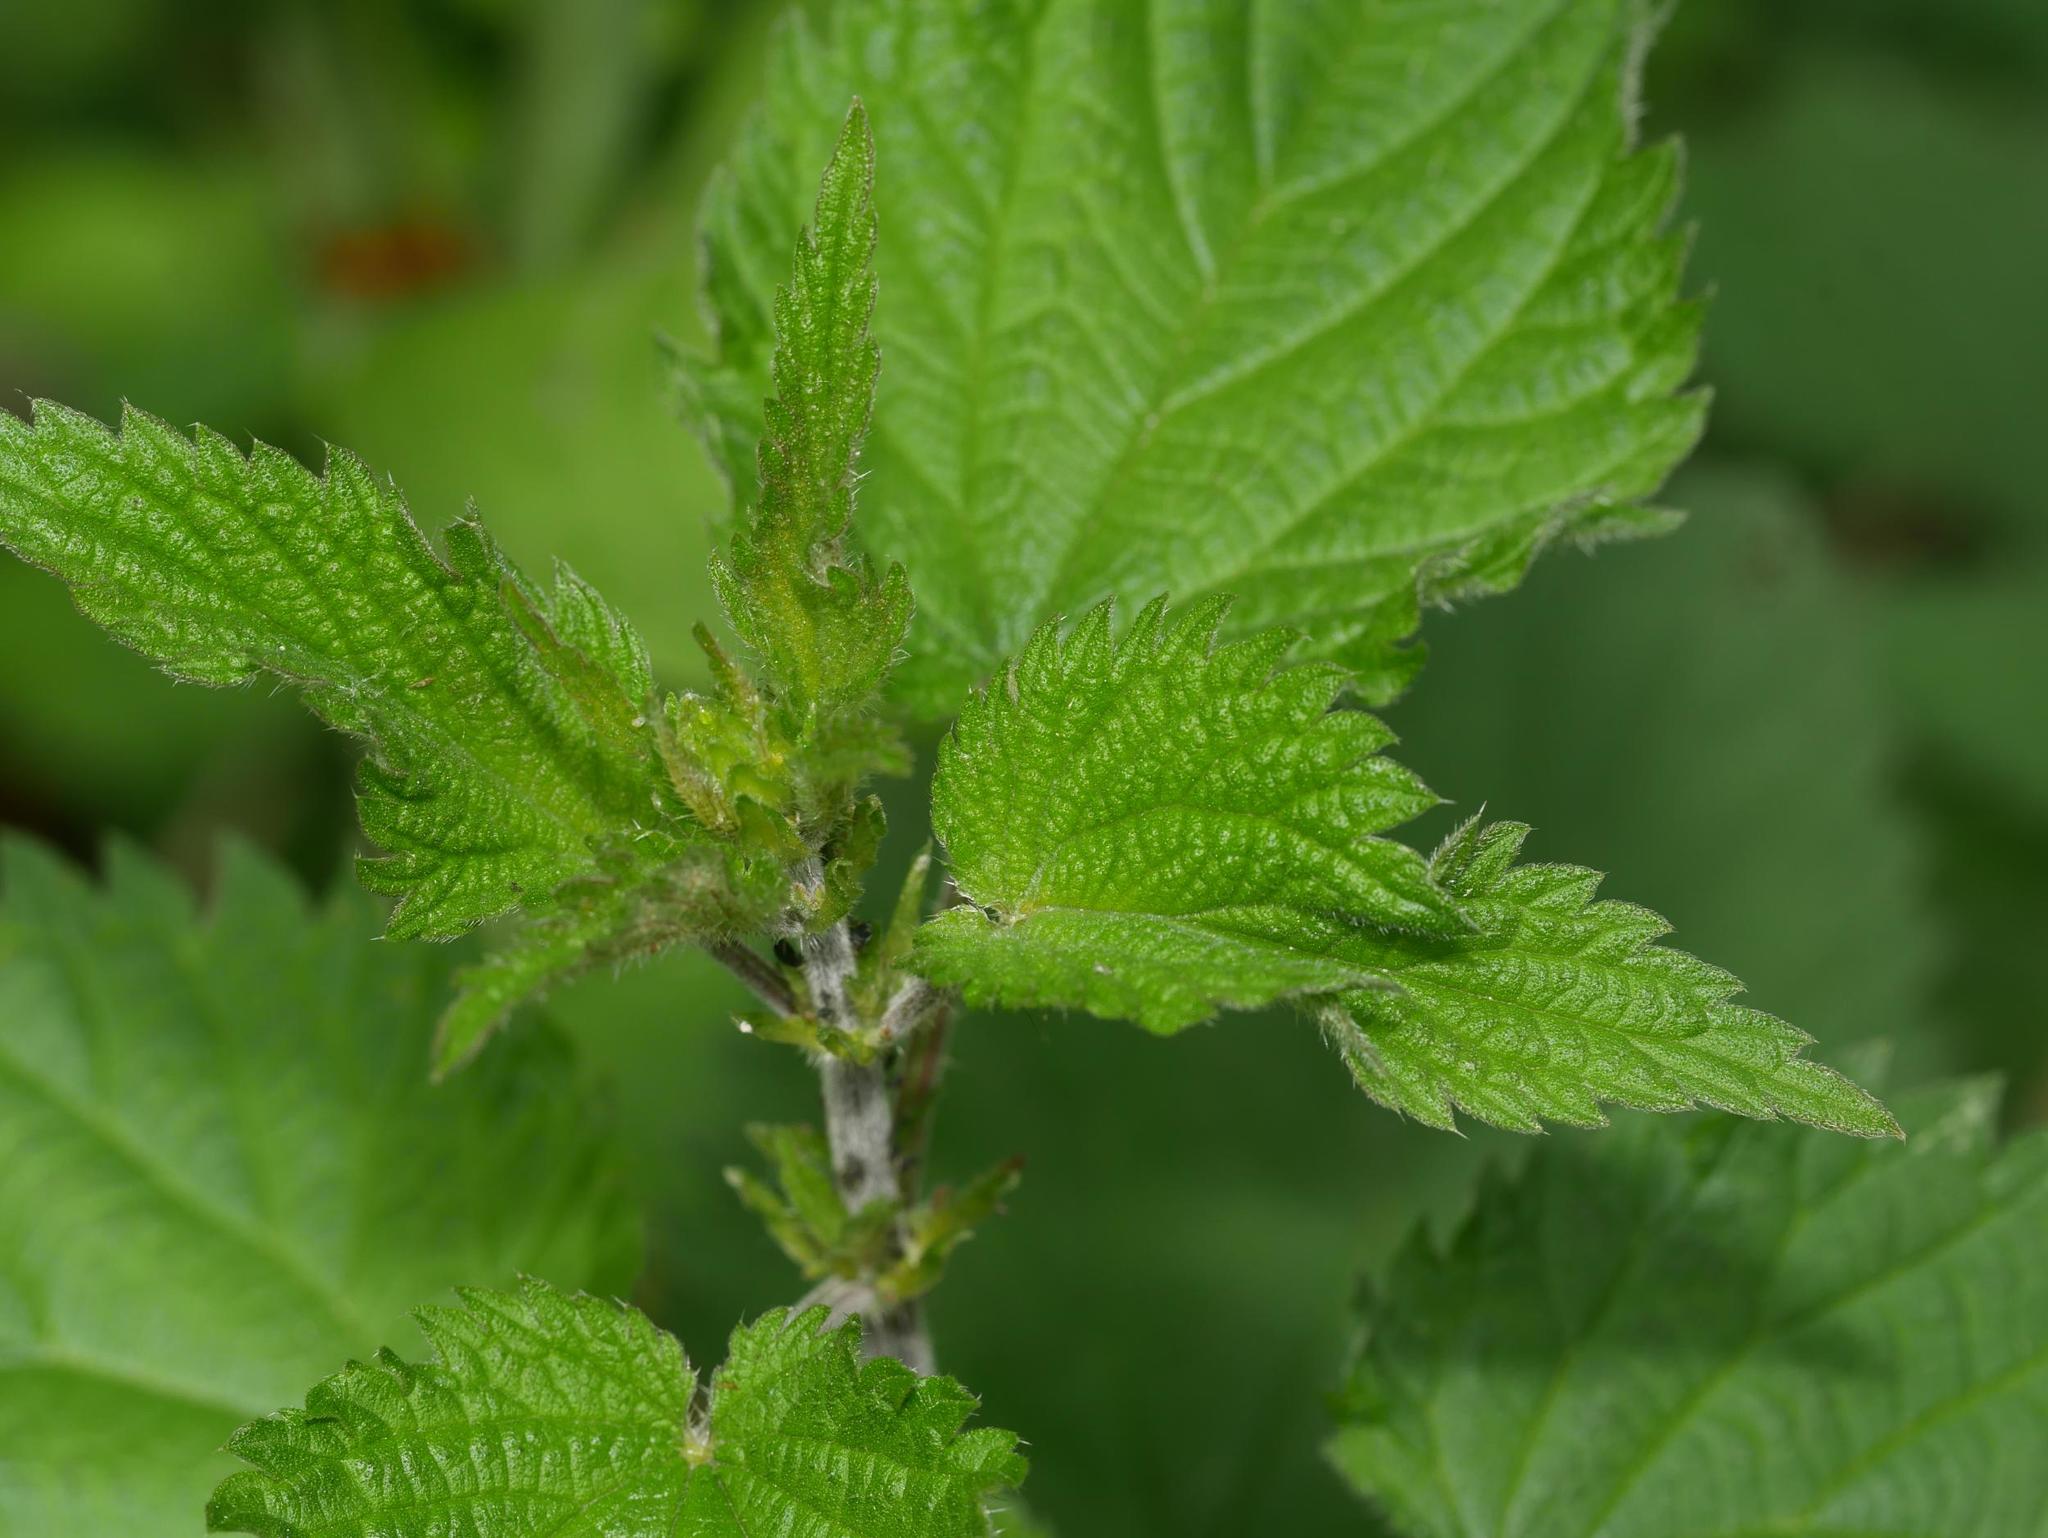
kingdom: Plantae
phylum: Tracheophyta
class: Magnoliopsida
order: Rosales
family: Urticaceae
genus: Urtica
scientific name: Urtica dioica
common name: Common nettle
